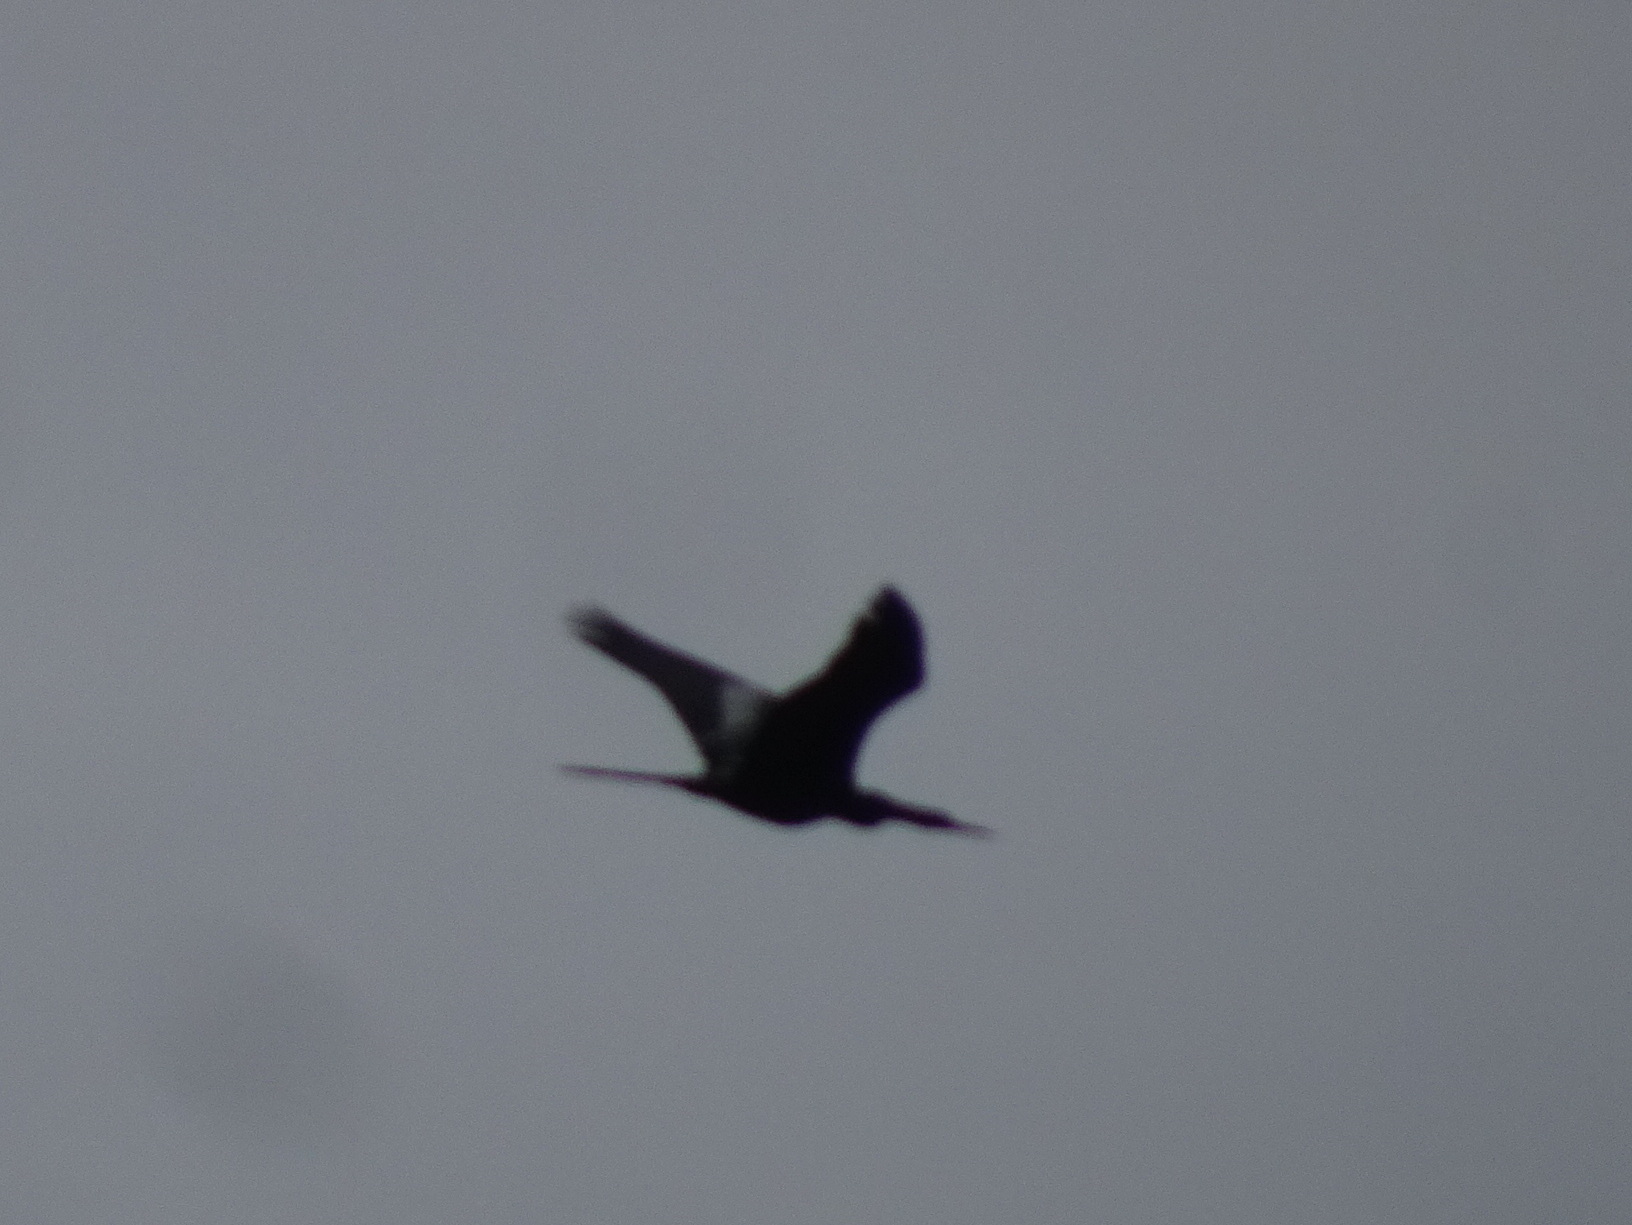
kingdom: Animalia
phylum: Chordata
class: Aves
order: Suliformes
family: Anhingidae
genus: Anhinga
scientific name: Anhinga anhinga
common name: Anhinga
